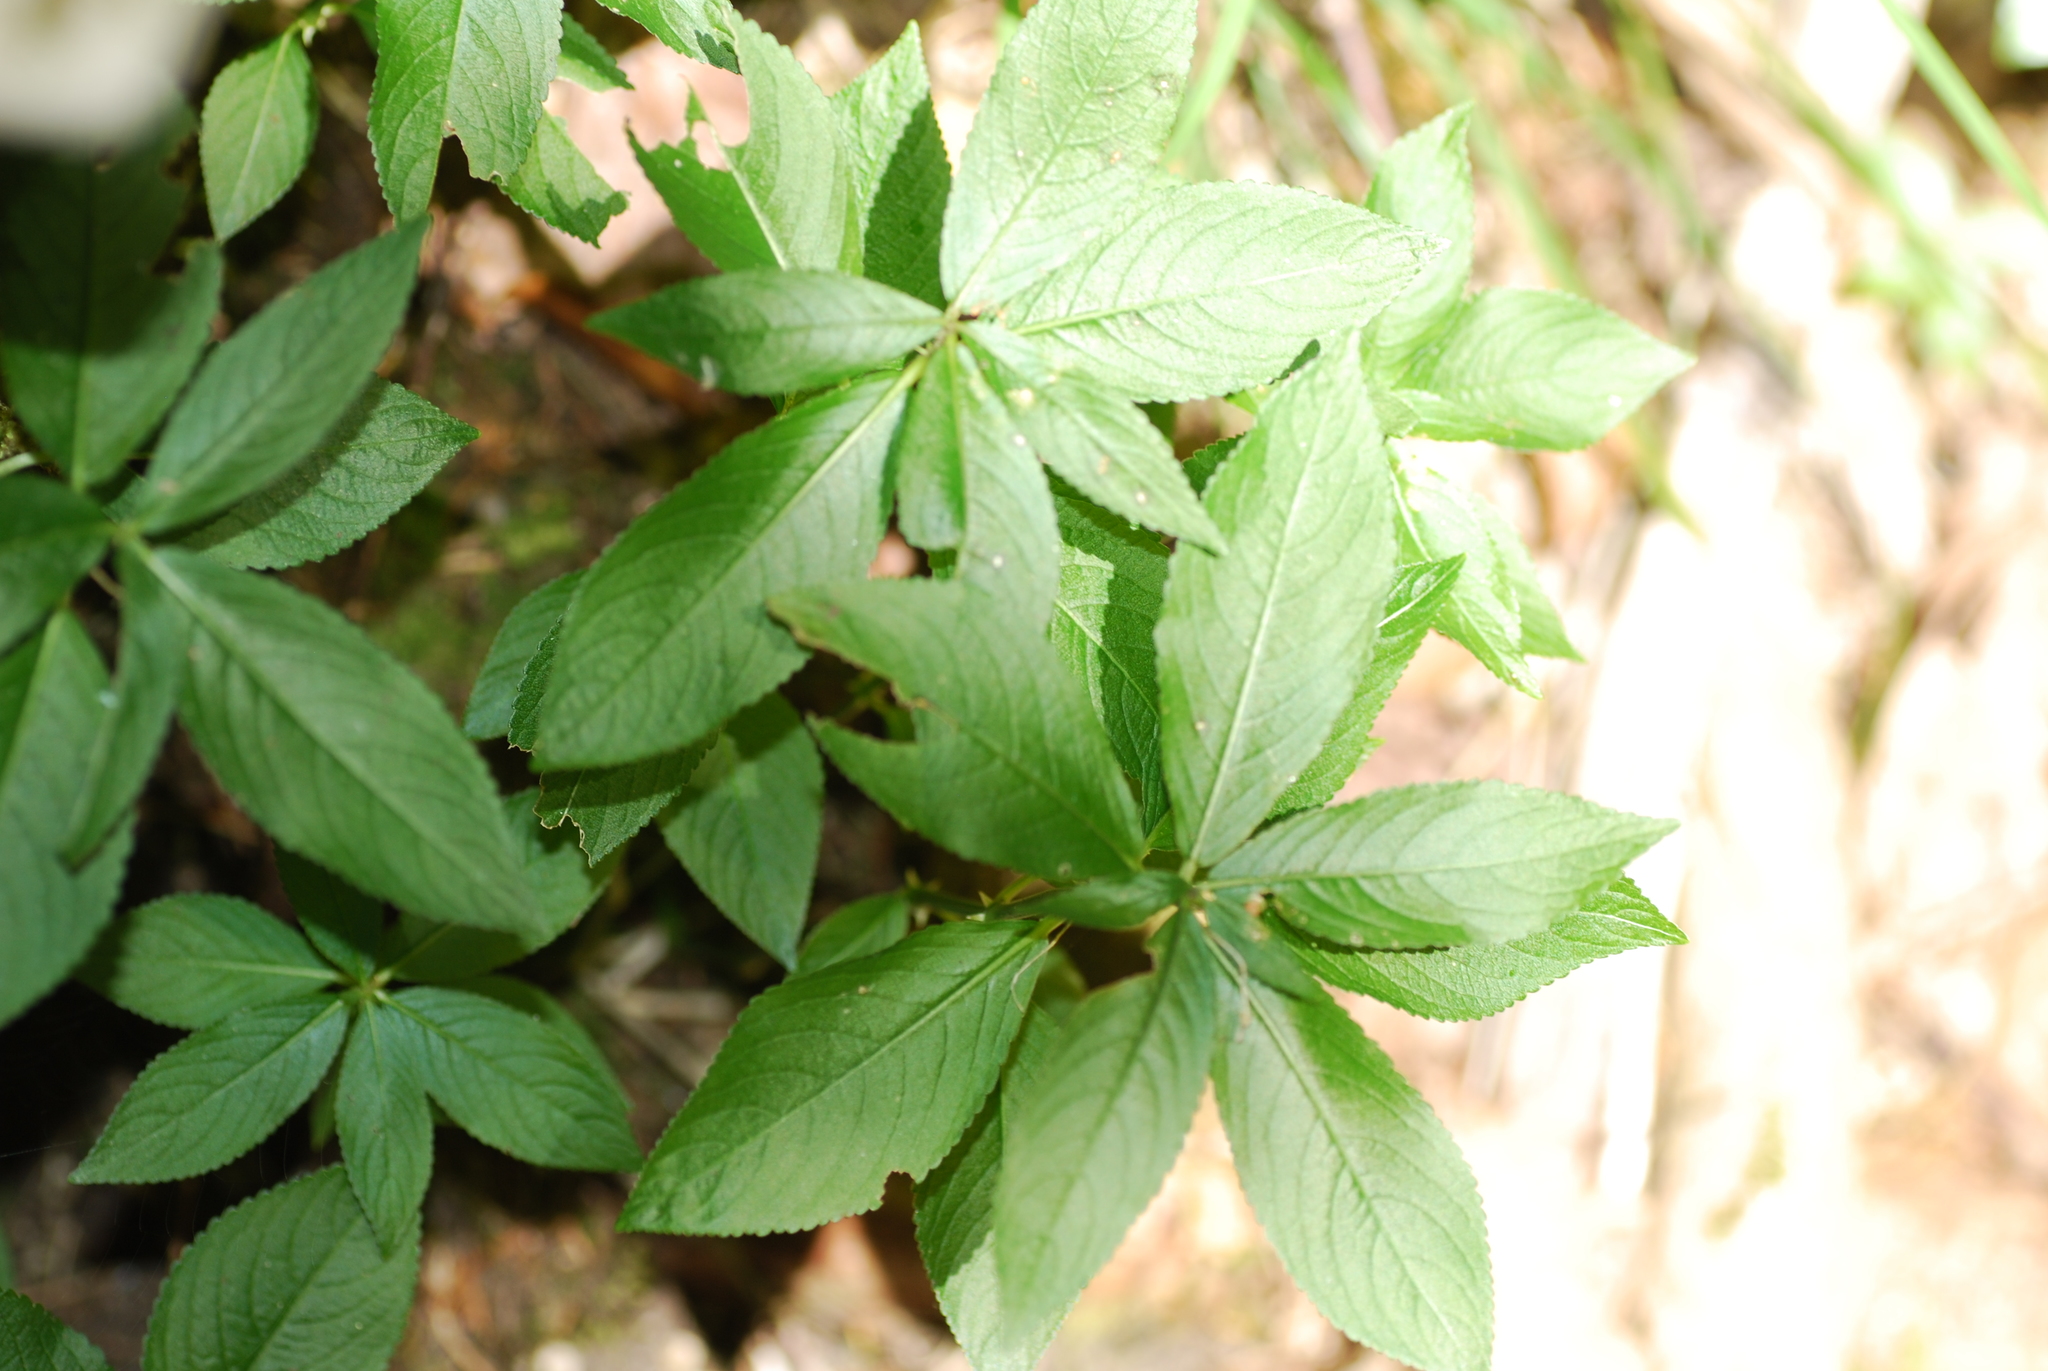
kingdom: Plantae
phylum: Tracheophyta
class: Magnoliopsida
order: Malpighiales
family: Euphorbiaceae
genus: Mercurialis
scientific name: Mercurialis perennis
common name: Dog mercury
